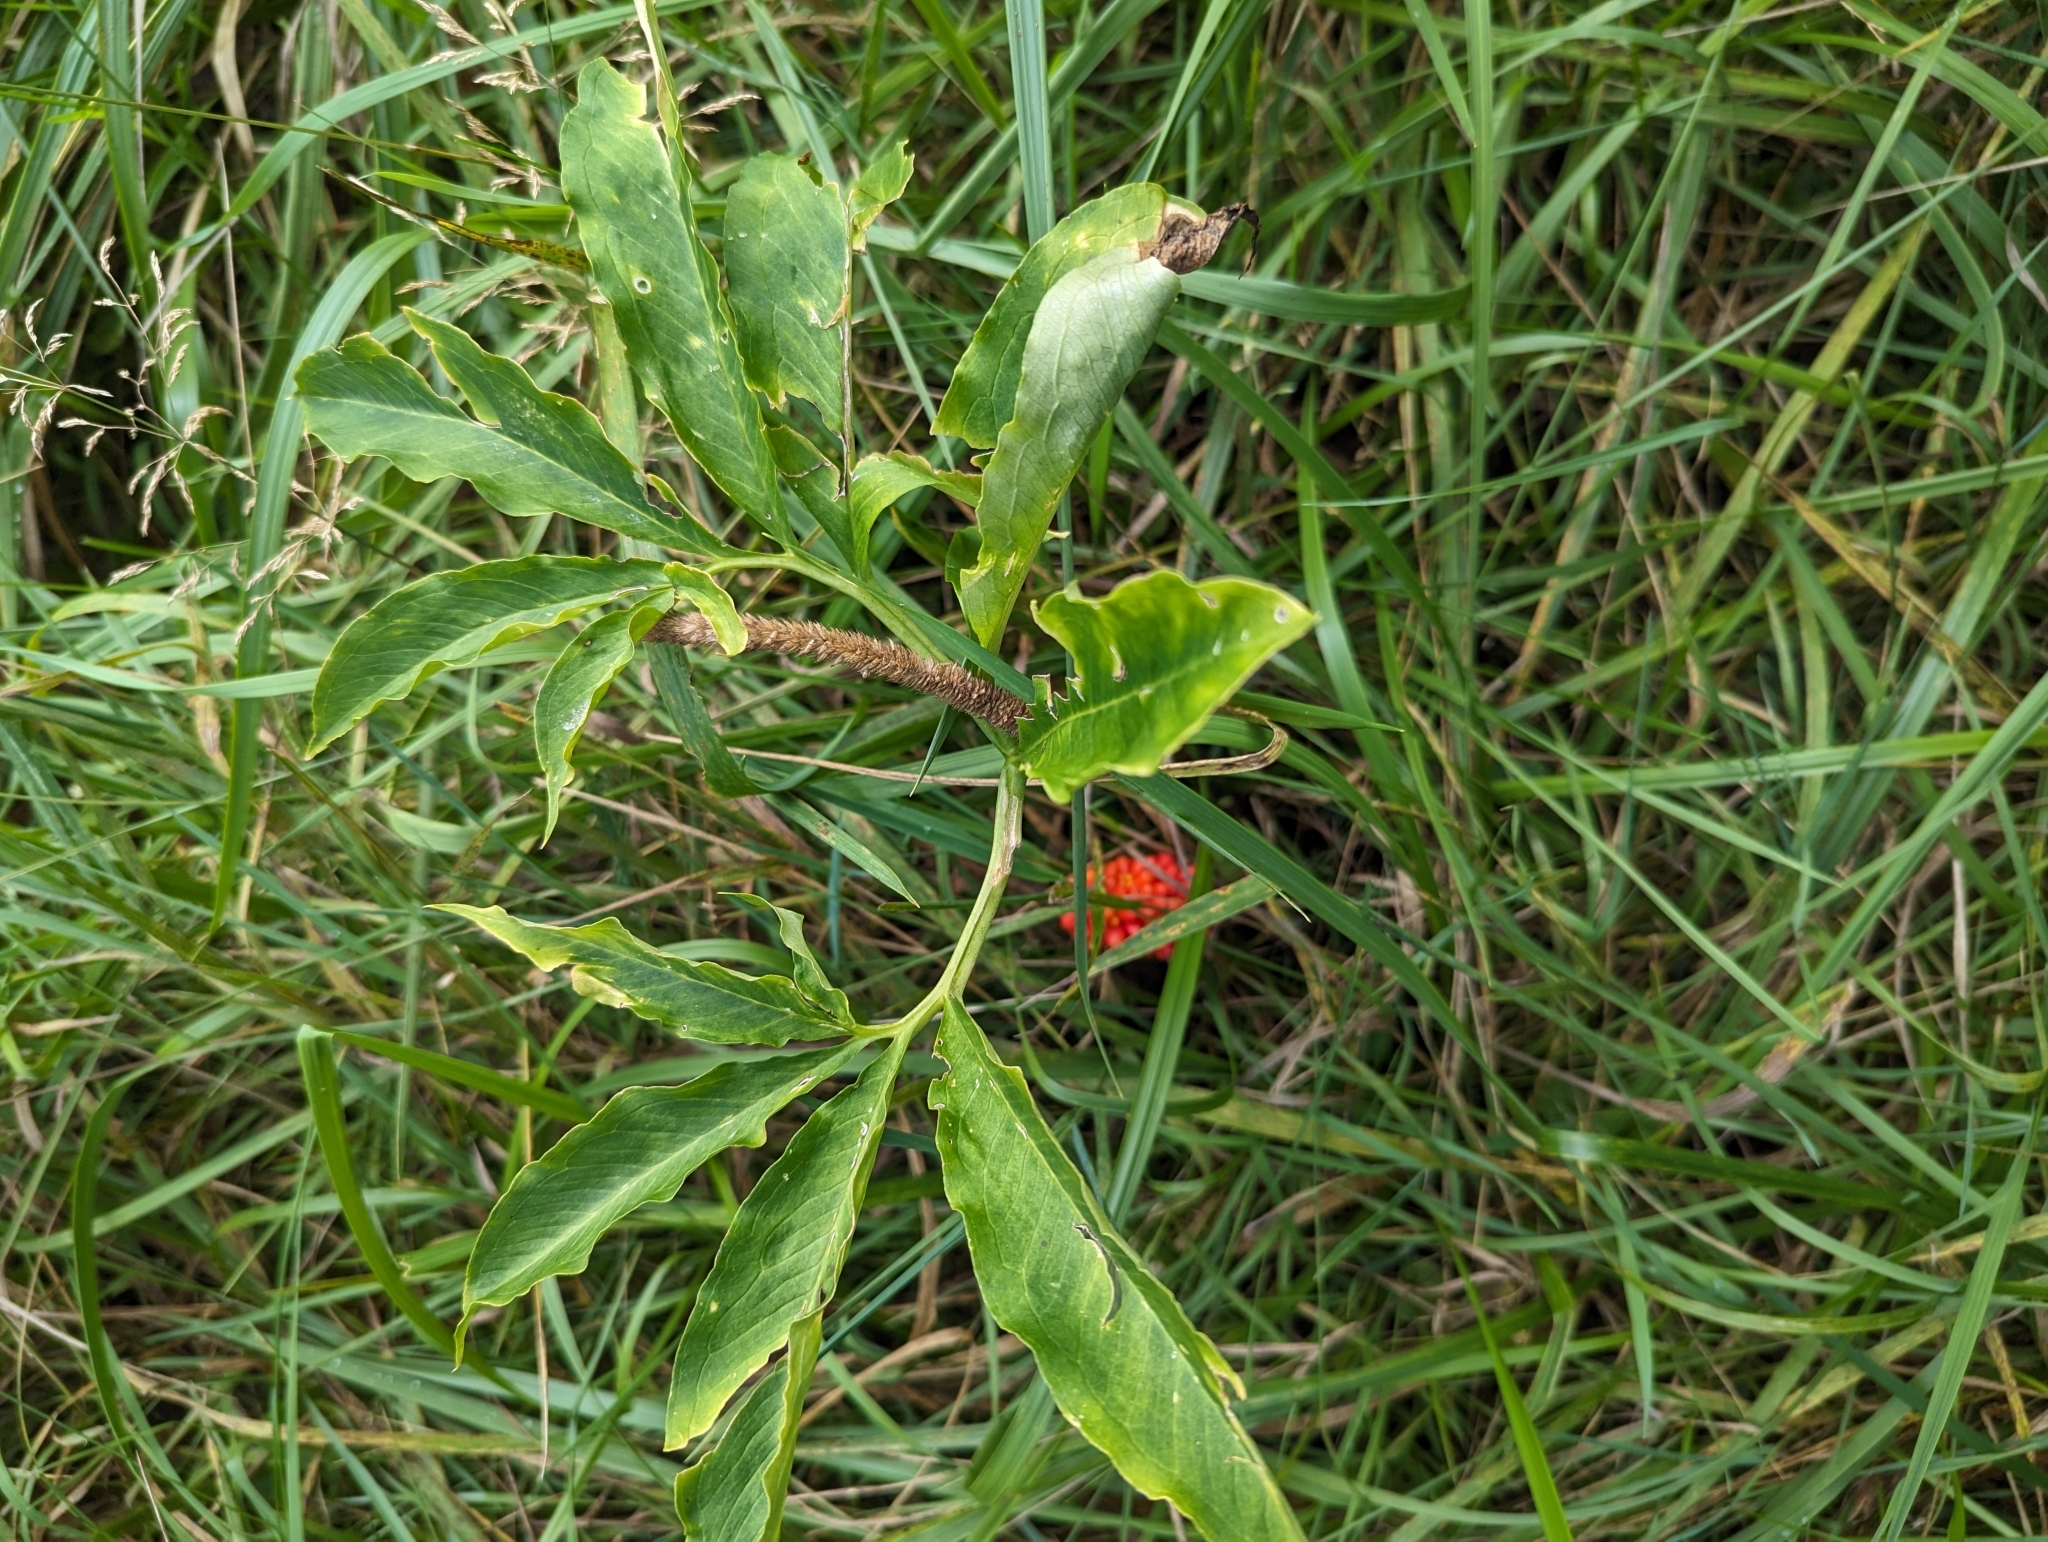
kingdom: Plantae
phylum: Tracheophyta
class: Liliopsida
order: Alismatales
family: Araceae
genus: Arisaema
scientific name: Arisaema dracontium
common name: Dragon-arum
